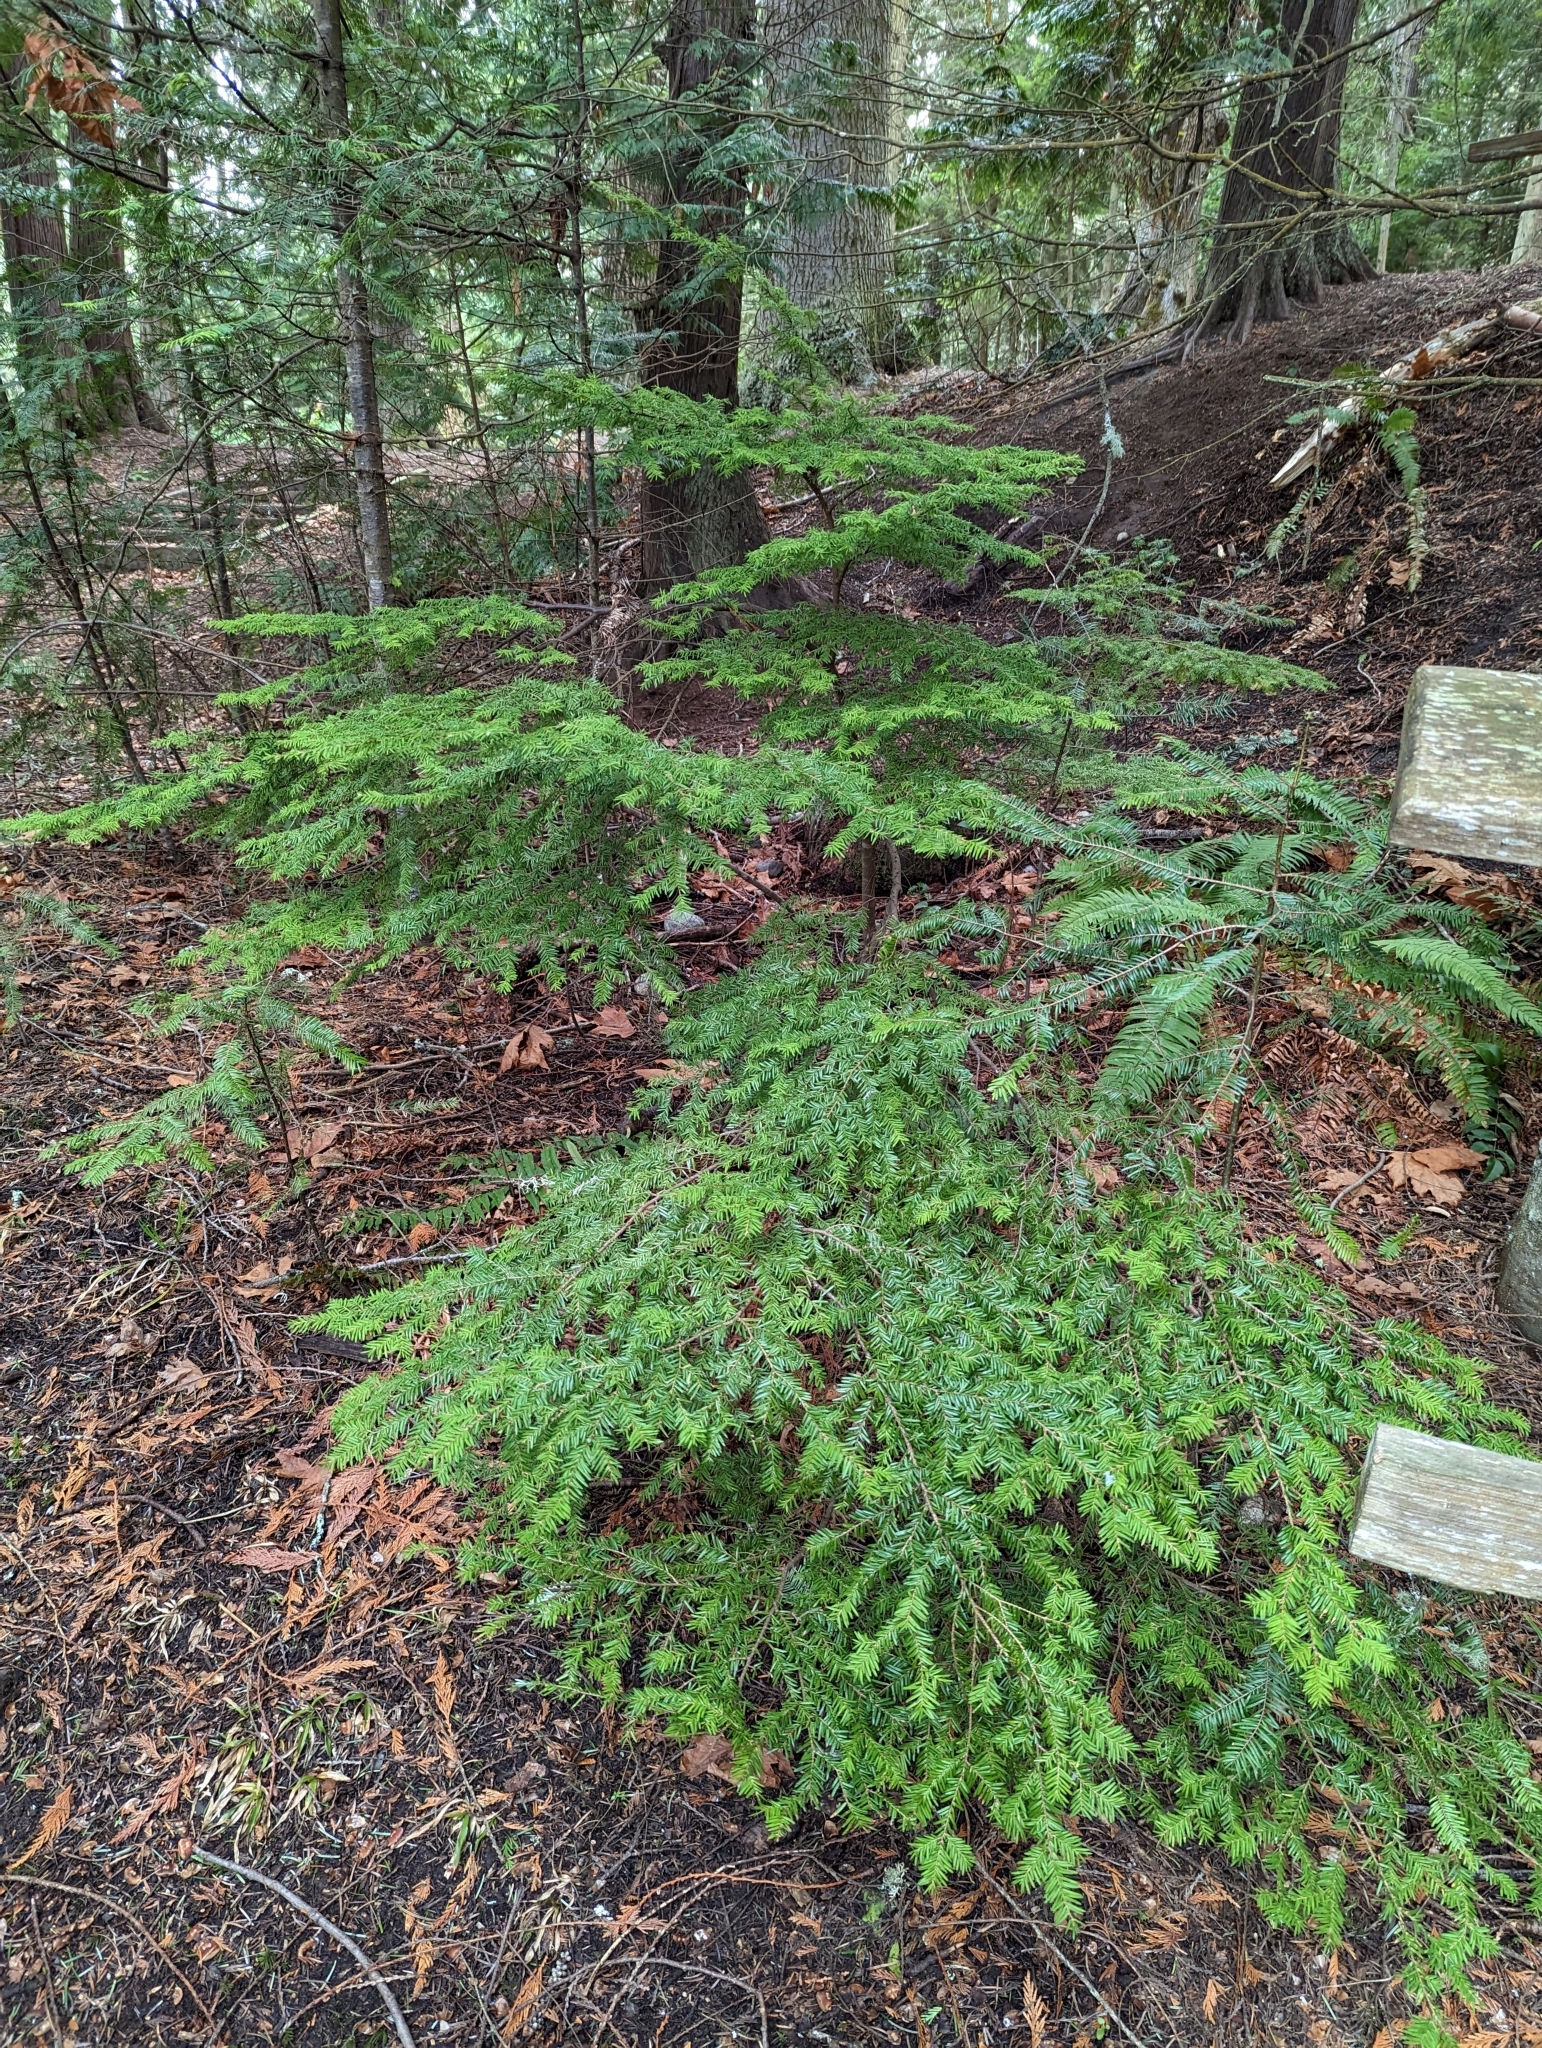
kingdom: Plantae
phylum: Tracheophyta
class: Pinopsida
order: Pinales
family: Pinaceae
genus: Tsuga
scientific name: Tsuga heterophylla
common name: Western hemlock
